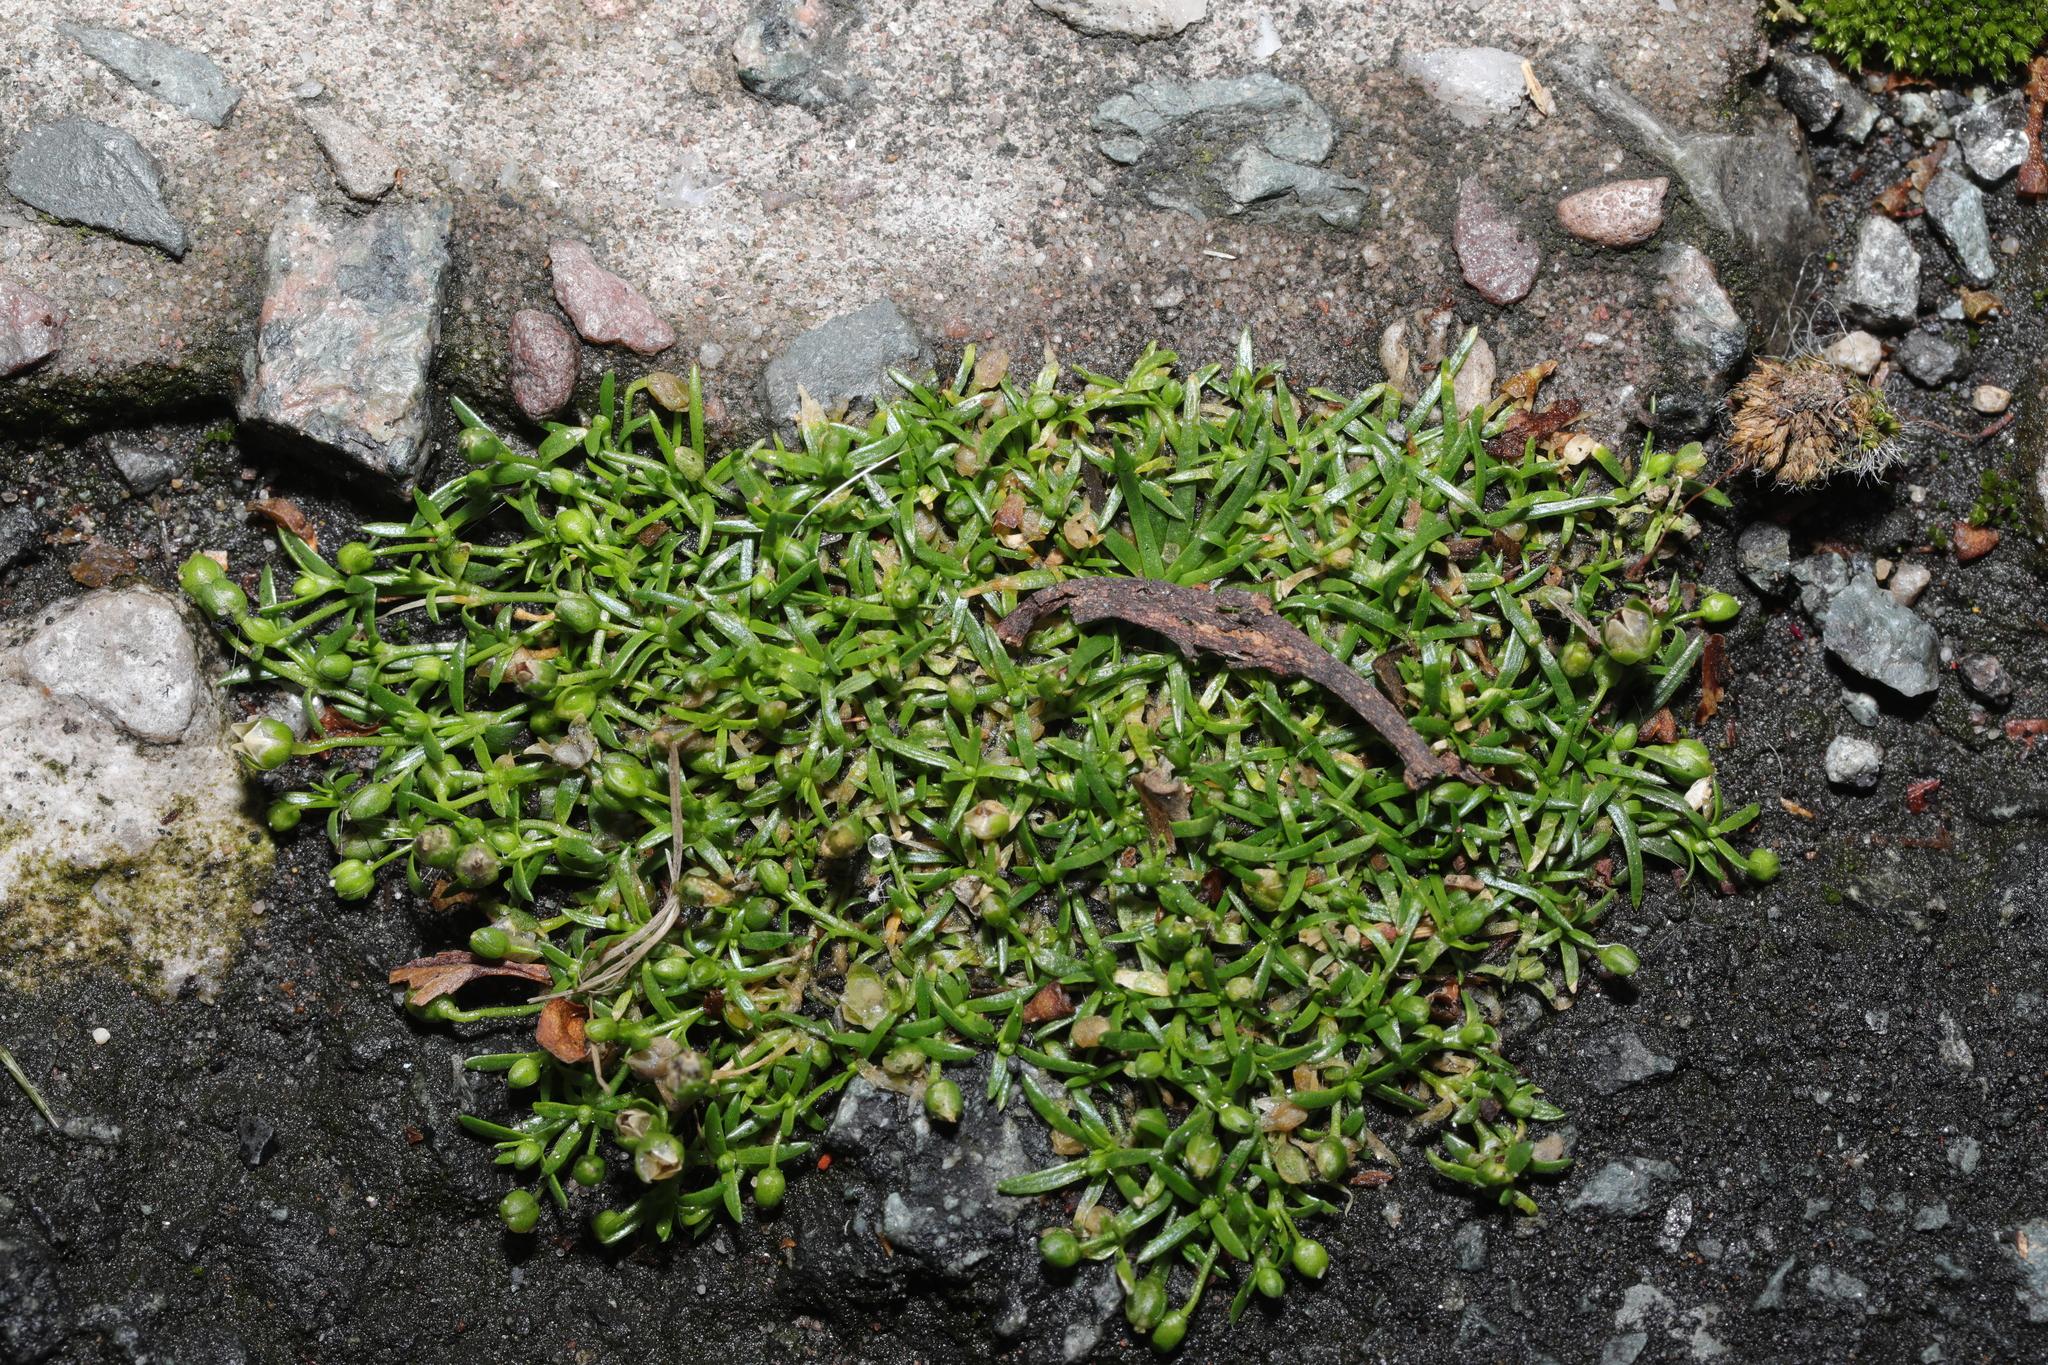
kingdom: Plantae
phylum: Tracheophyta
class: Magnoliopsida
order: Caryophyllales
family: Caryophyllaceae
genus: Sagina
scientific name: Sagina procumbens
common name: Procumbent pearlwort
